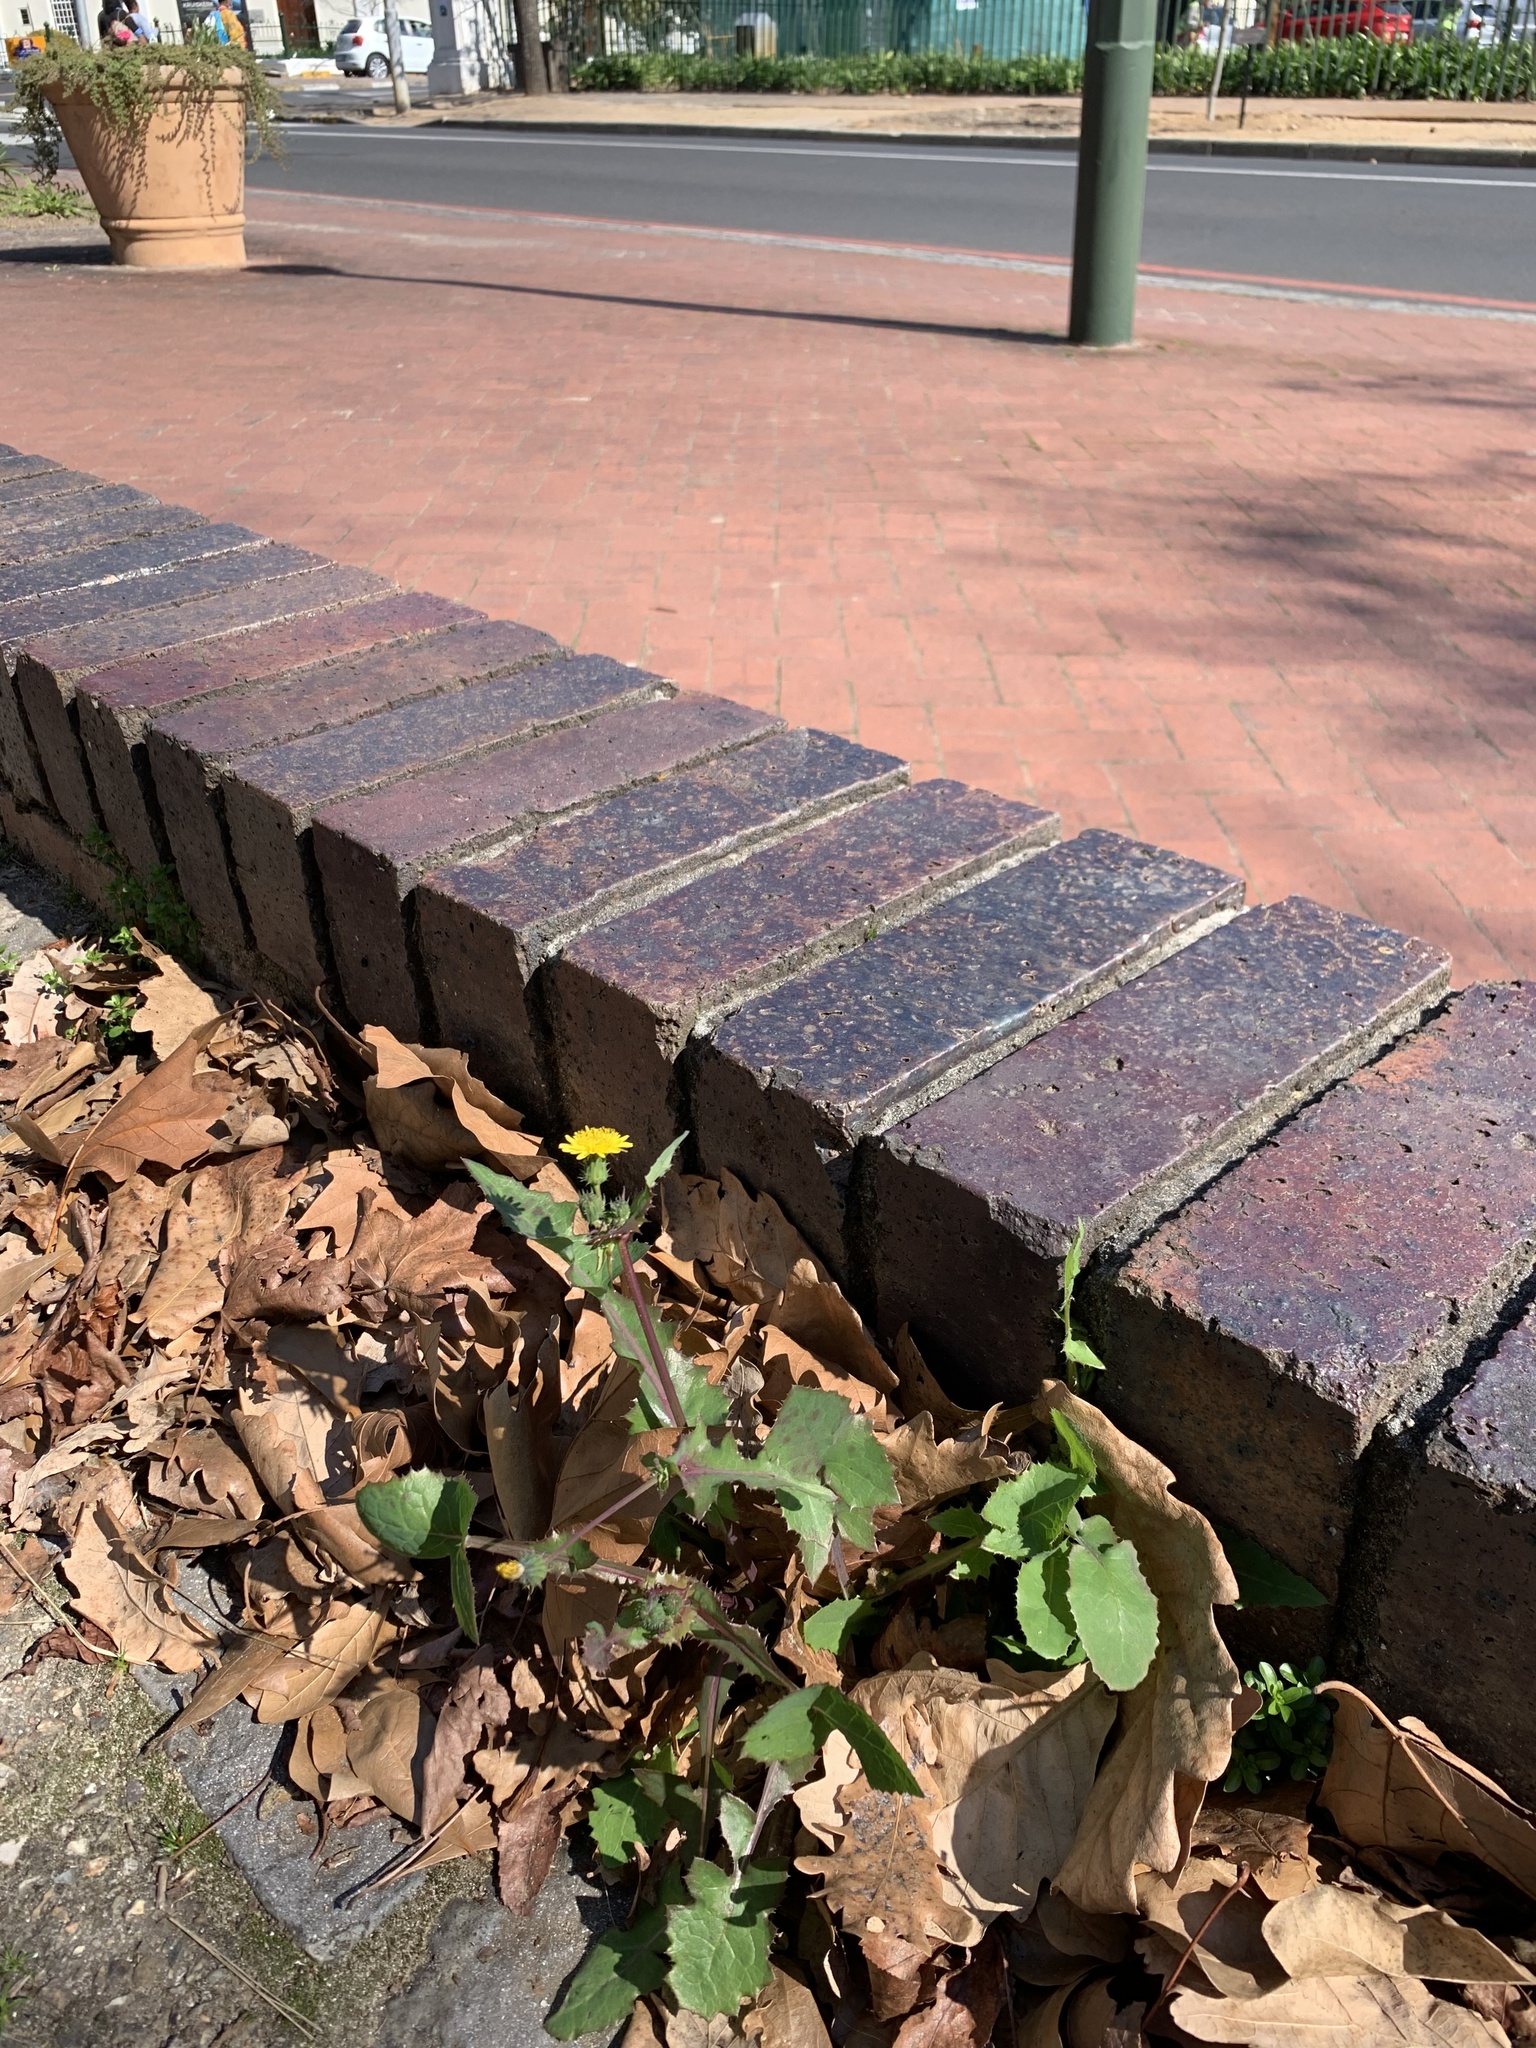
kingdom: Plantae
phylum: Tracheophyta
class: Magnoliopsida
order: Asterales
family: Asteraceae
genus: Sonchus
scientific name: Sonchus oleraceus
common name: Common sowthistle
